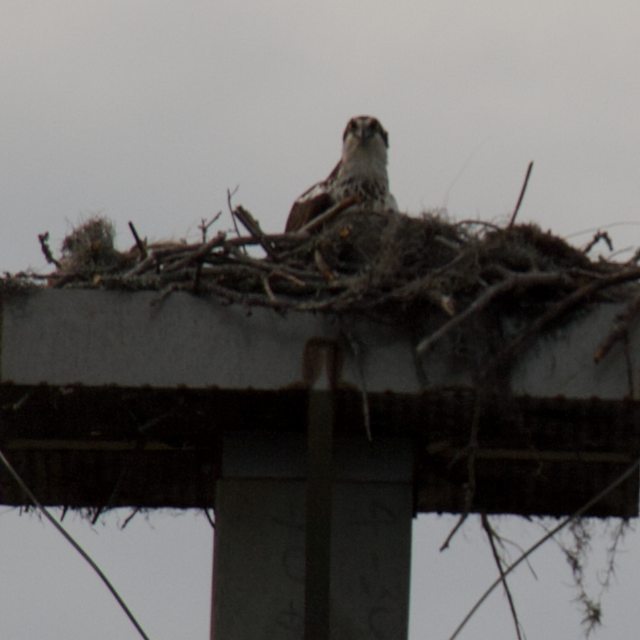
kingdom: Animalia
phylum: Chordata
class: Aves
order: Accipitriformes
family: Pandionidae
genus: Pandion
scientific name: Pandion haliaetus
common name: Osprey
